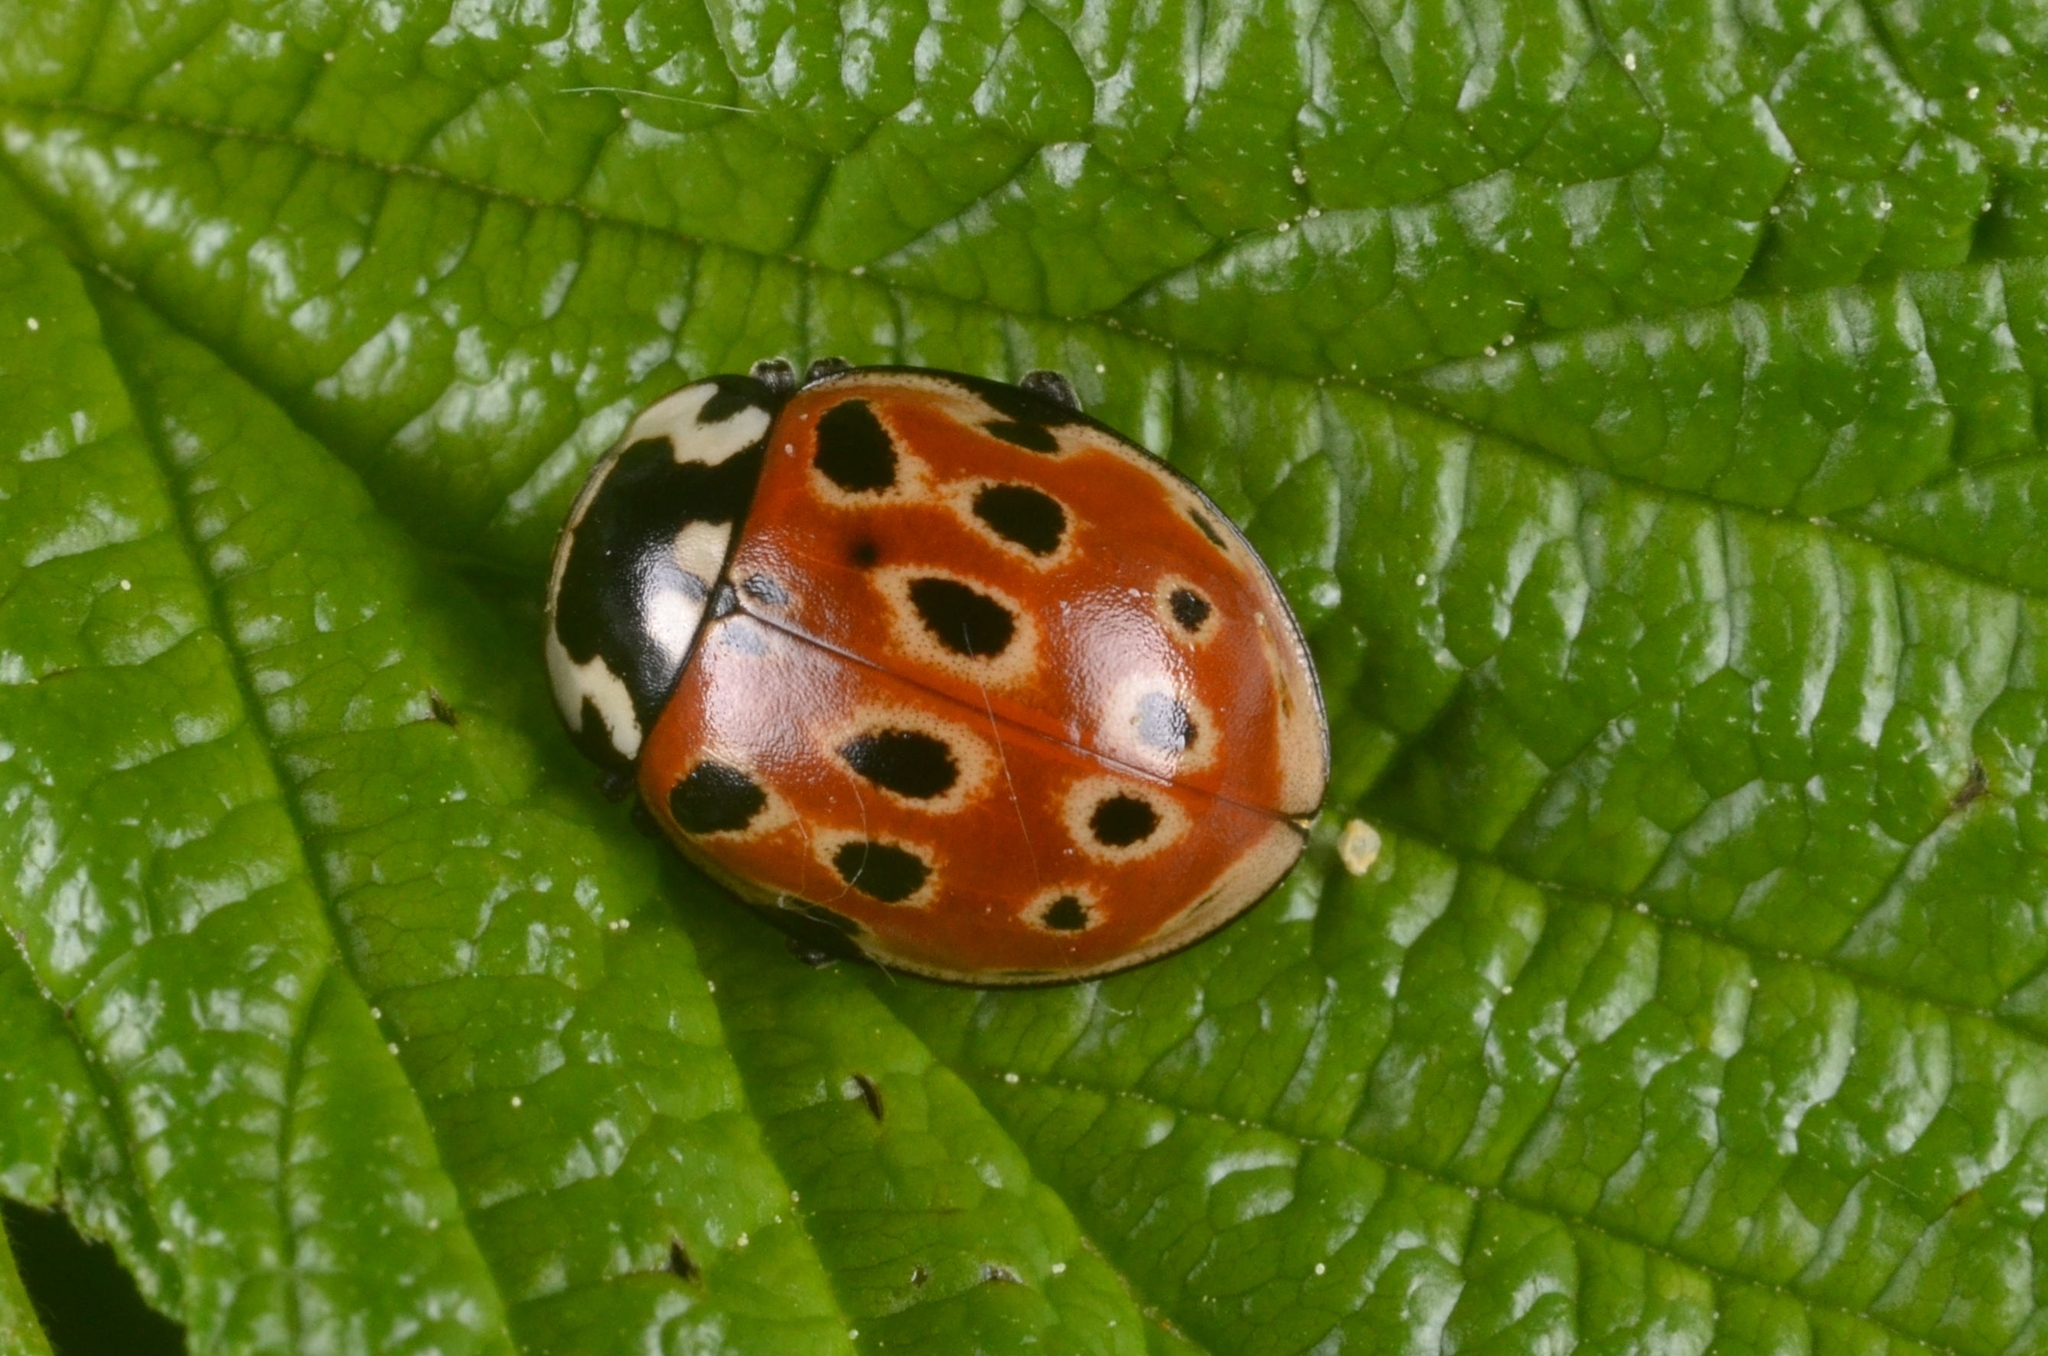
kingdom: Animalia
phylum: Arthropoda
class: Insecta
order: Coleoptera
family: Coccinellidae
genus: Anatis
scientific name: Anatis ocellata
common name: Eyed ladybird
